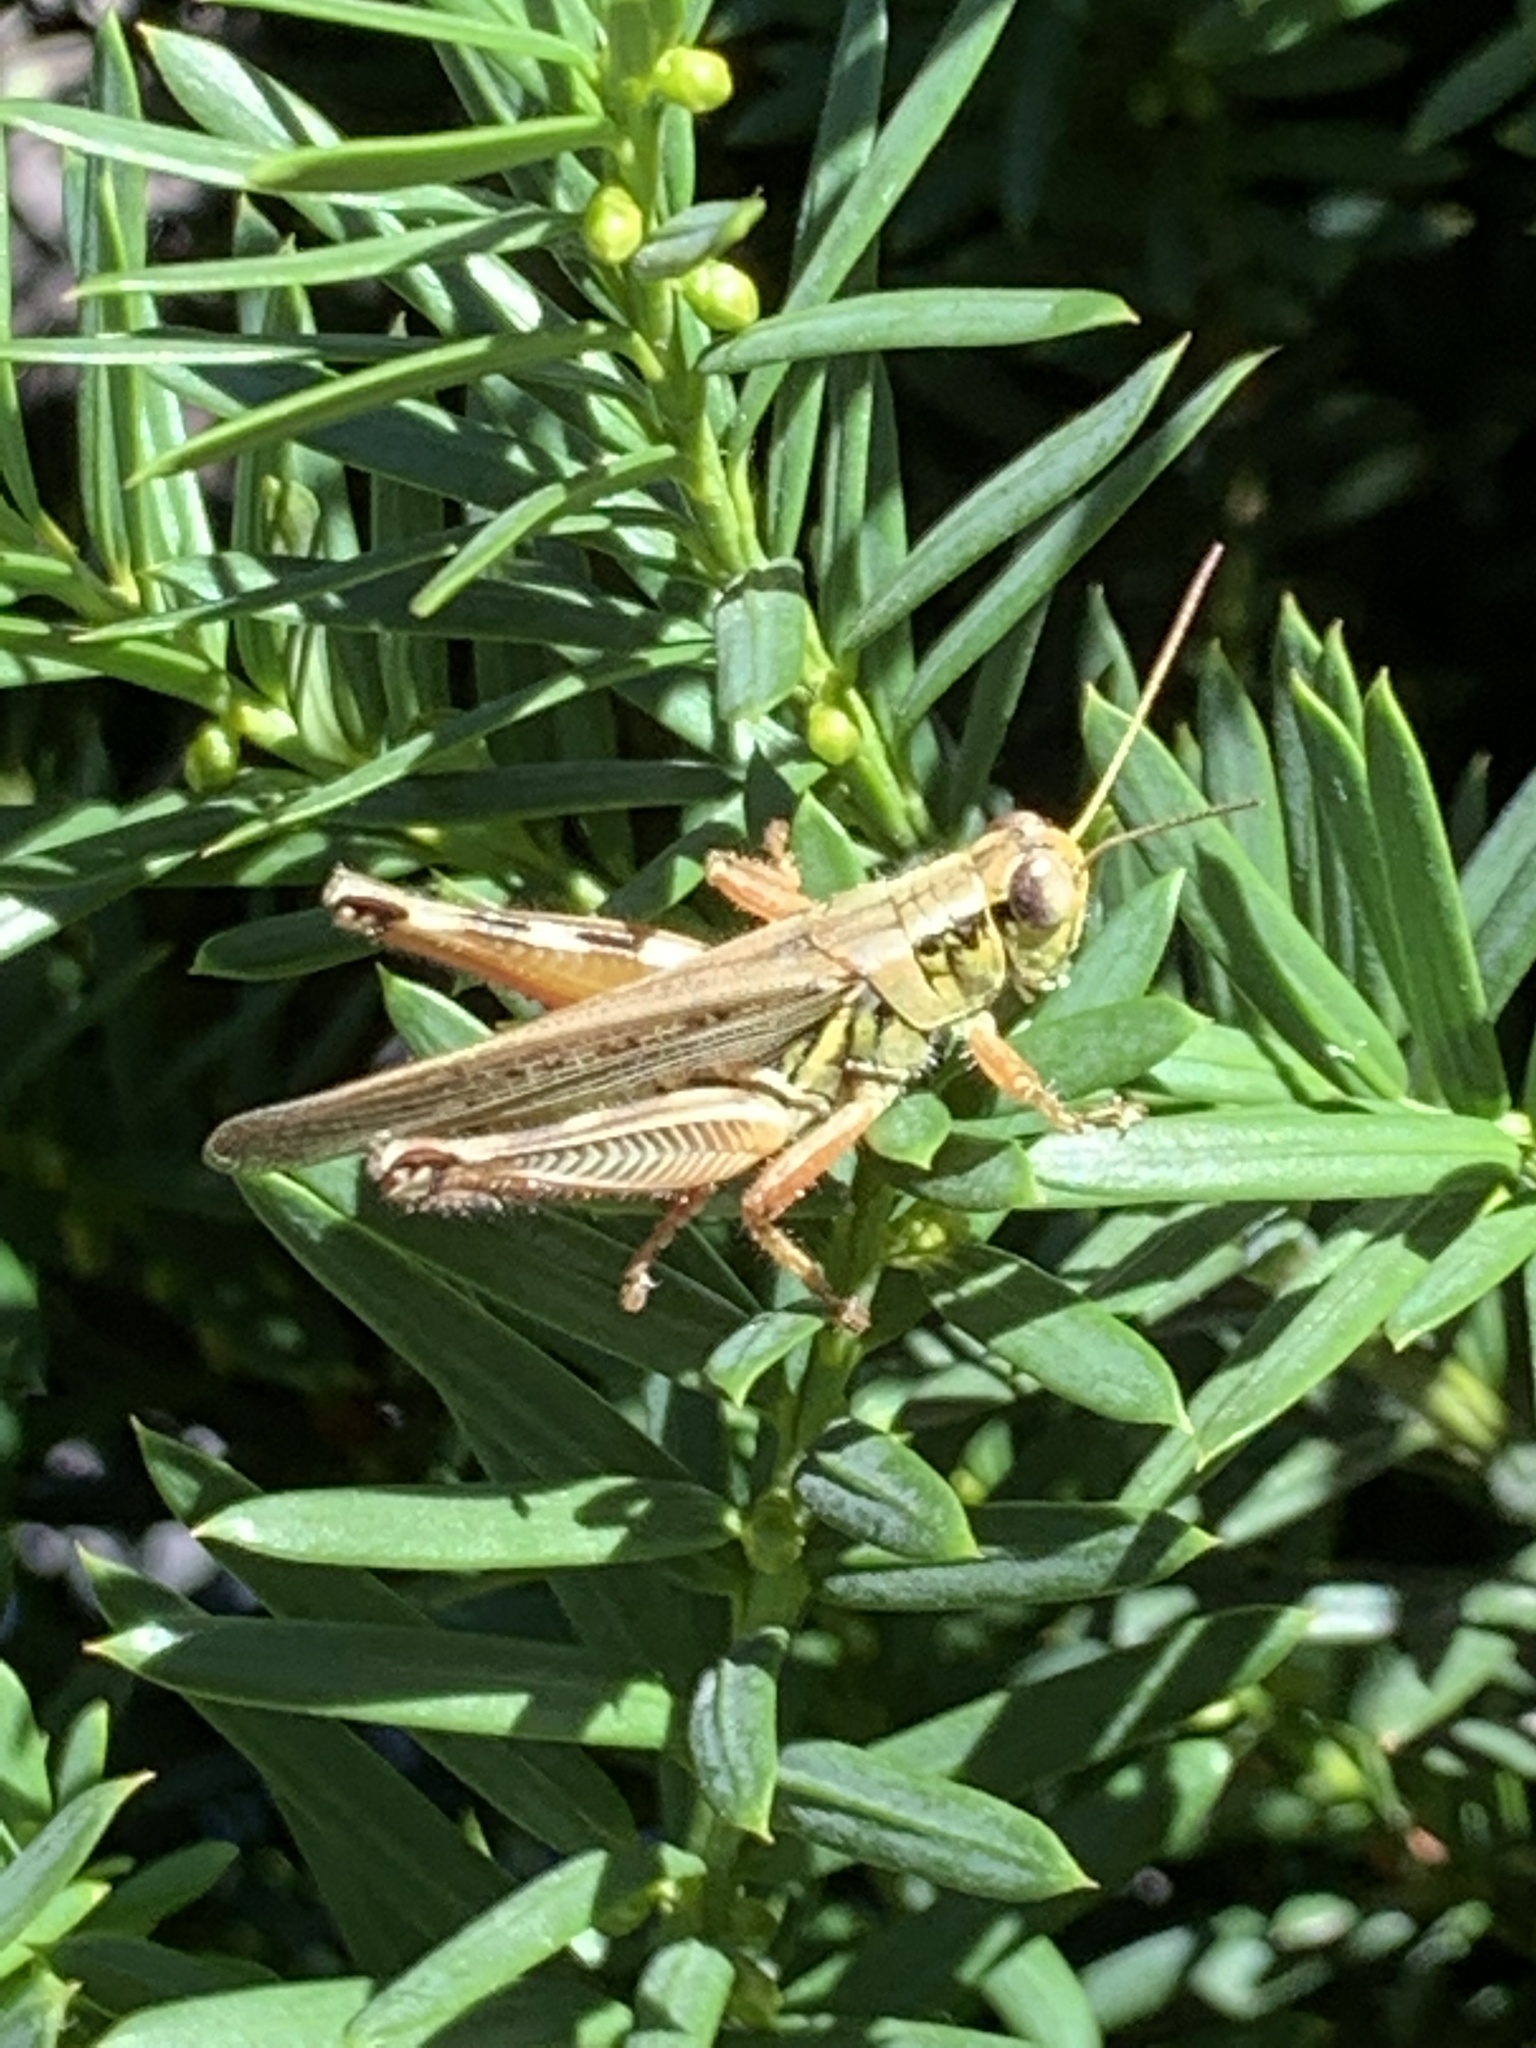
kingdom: Animalia
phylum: Arthropoda
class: Insecta
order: Orthoptera
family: Acrididae
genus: Melanoplus
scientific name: Melanoplus femurrubrum
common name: Red-legged grasshopper
